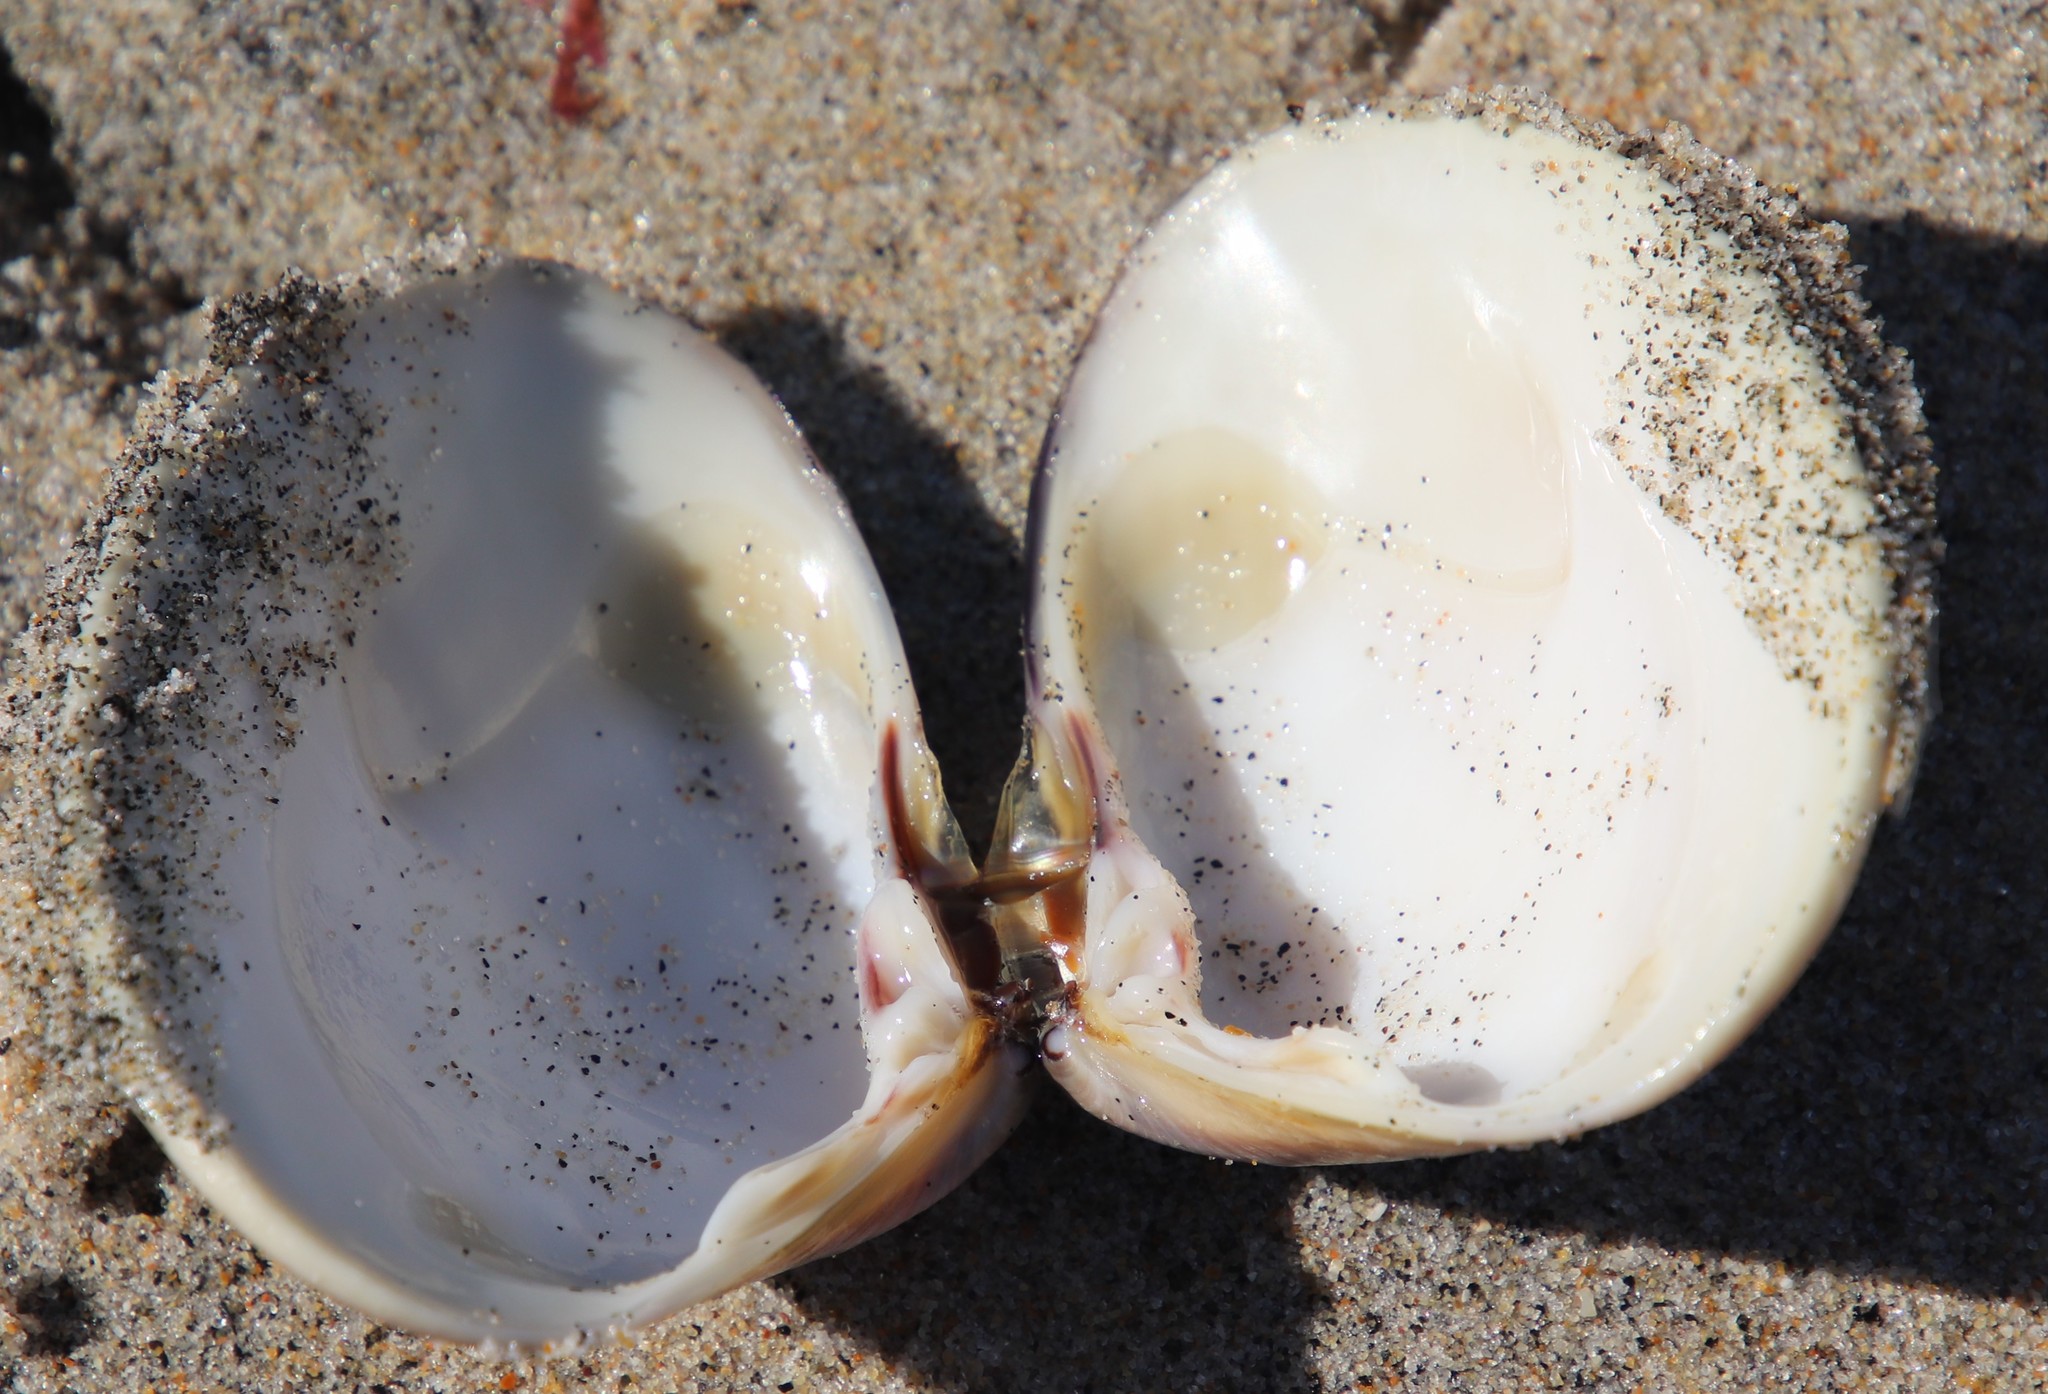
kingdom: Animalia
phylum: Mollusca
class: Bivalvia
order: Venerida
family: Veneridae
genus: Tivela
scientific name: Tivela stultorum
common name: Pismo clam
